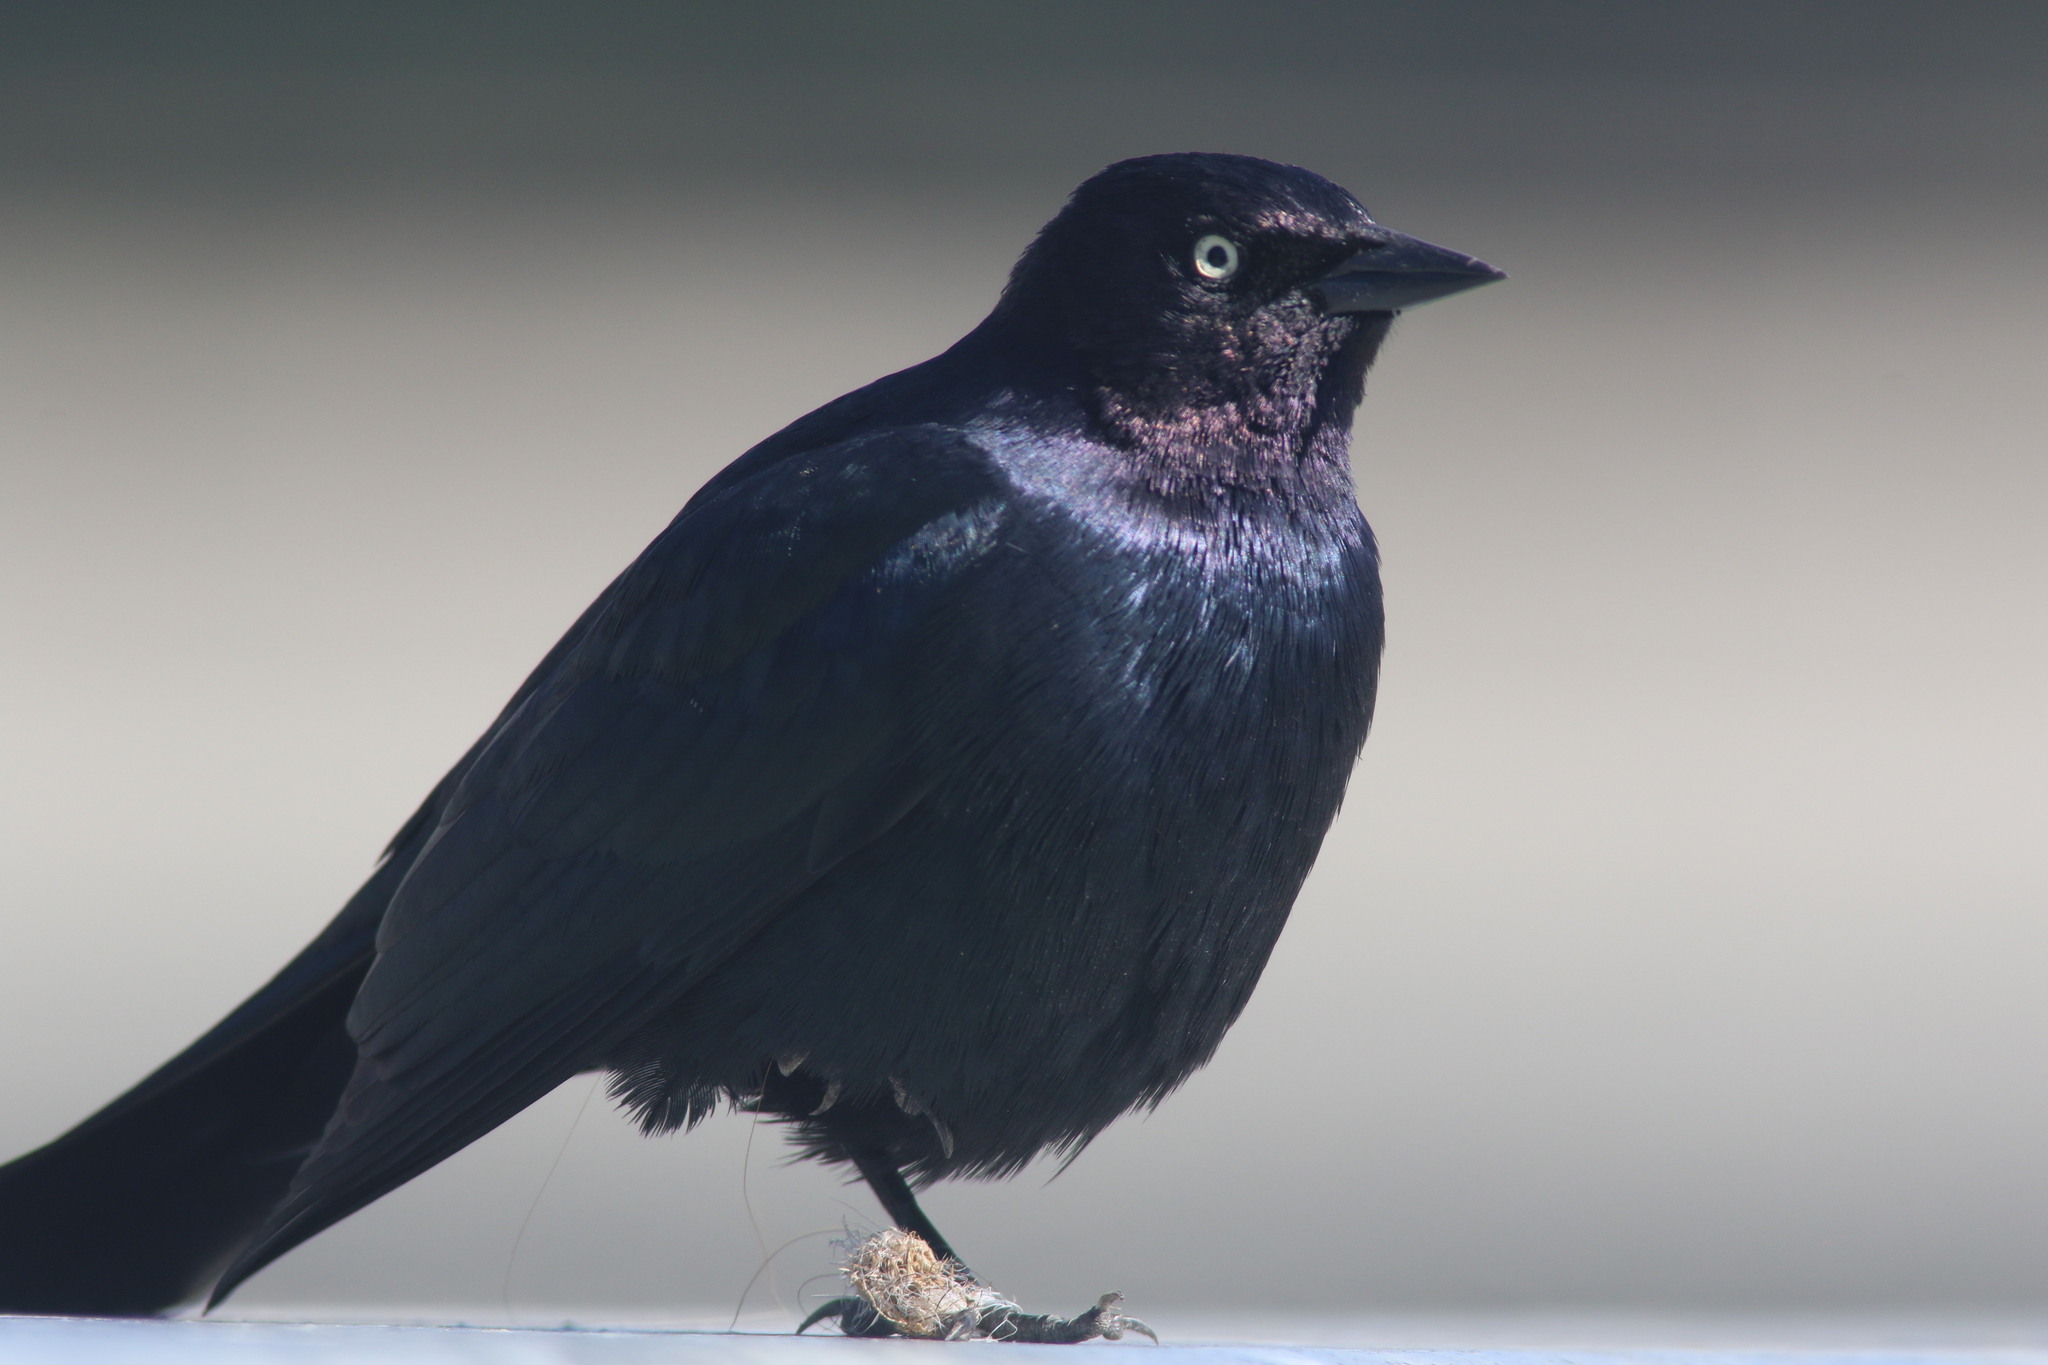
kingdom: Animalia
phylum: Chordata
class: Aves
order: Passeriformes
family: Icteridae
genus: Euphagus
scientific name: Euphagus cyanocephalus
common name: Brewer's blackbird
